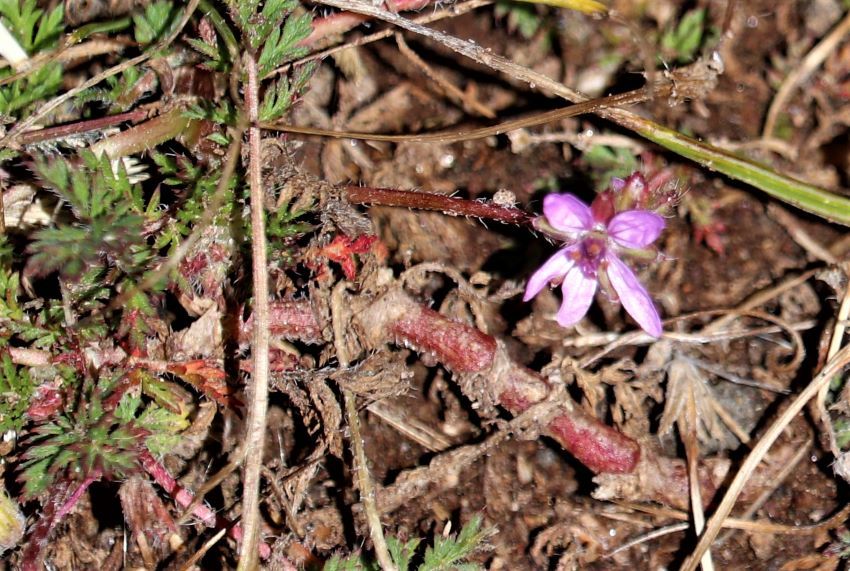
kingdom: Plantae
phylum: Tracheophyta
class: Magnoliopsida
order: Geraniales
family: Geraniaceae
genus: Erodium
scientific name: Erodium cicutarium
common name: Common stork's-bill
